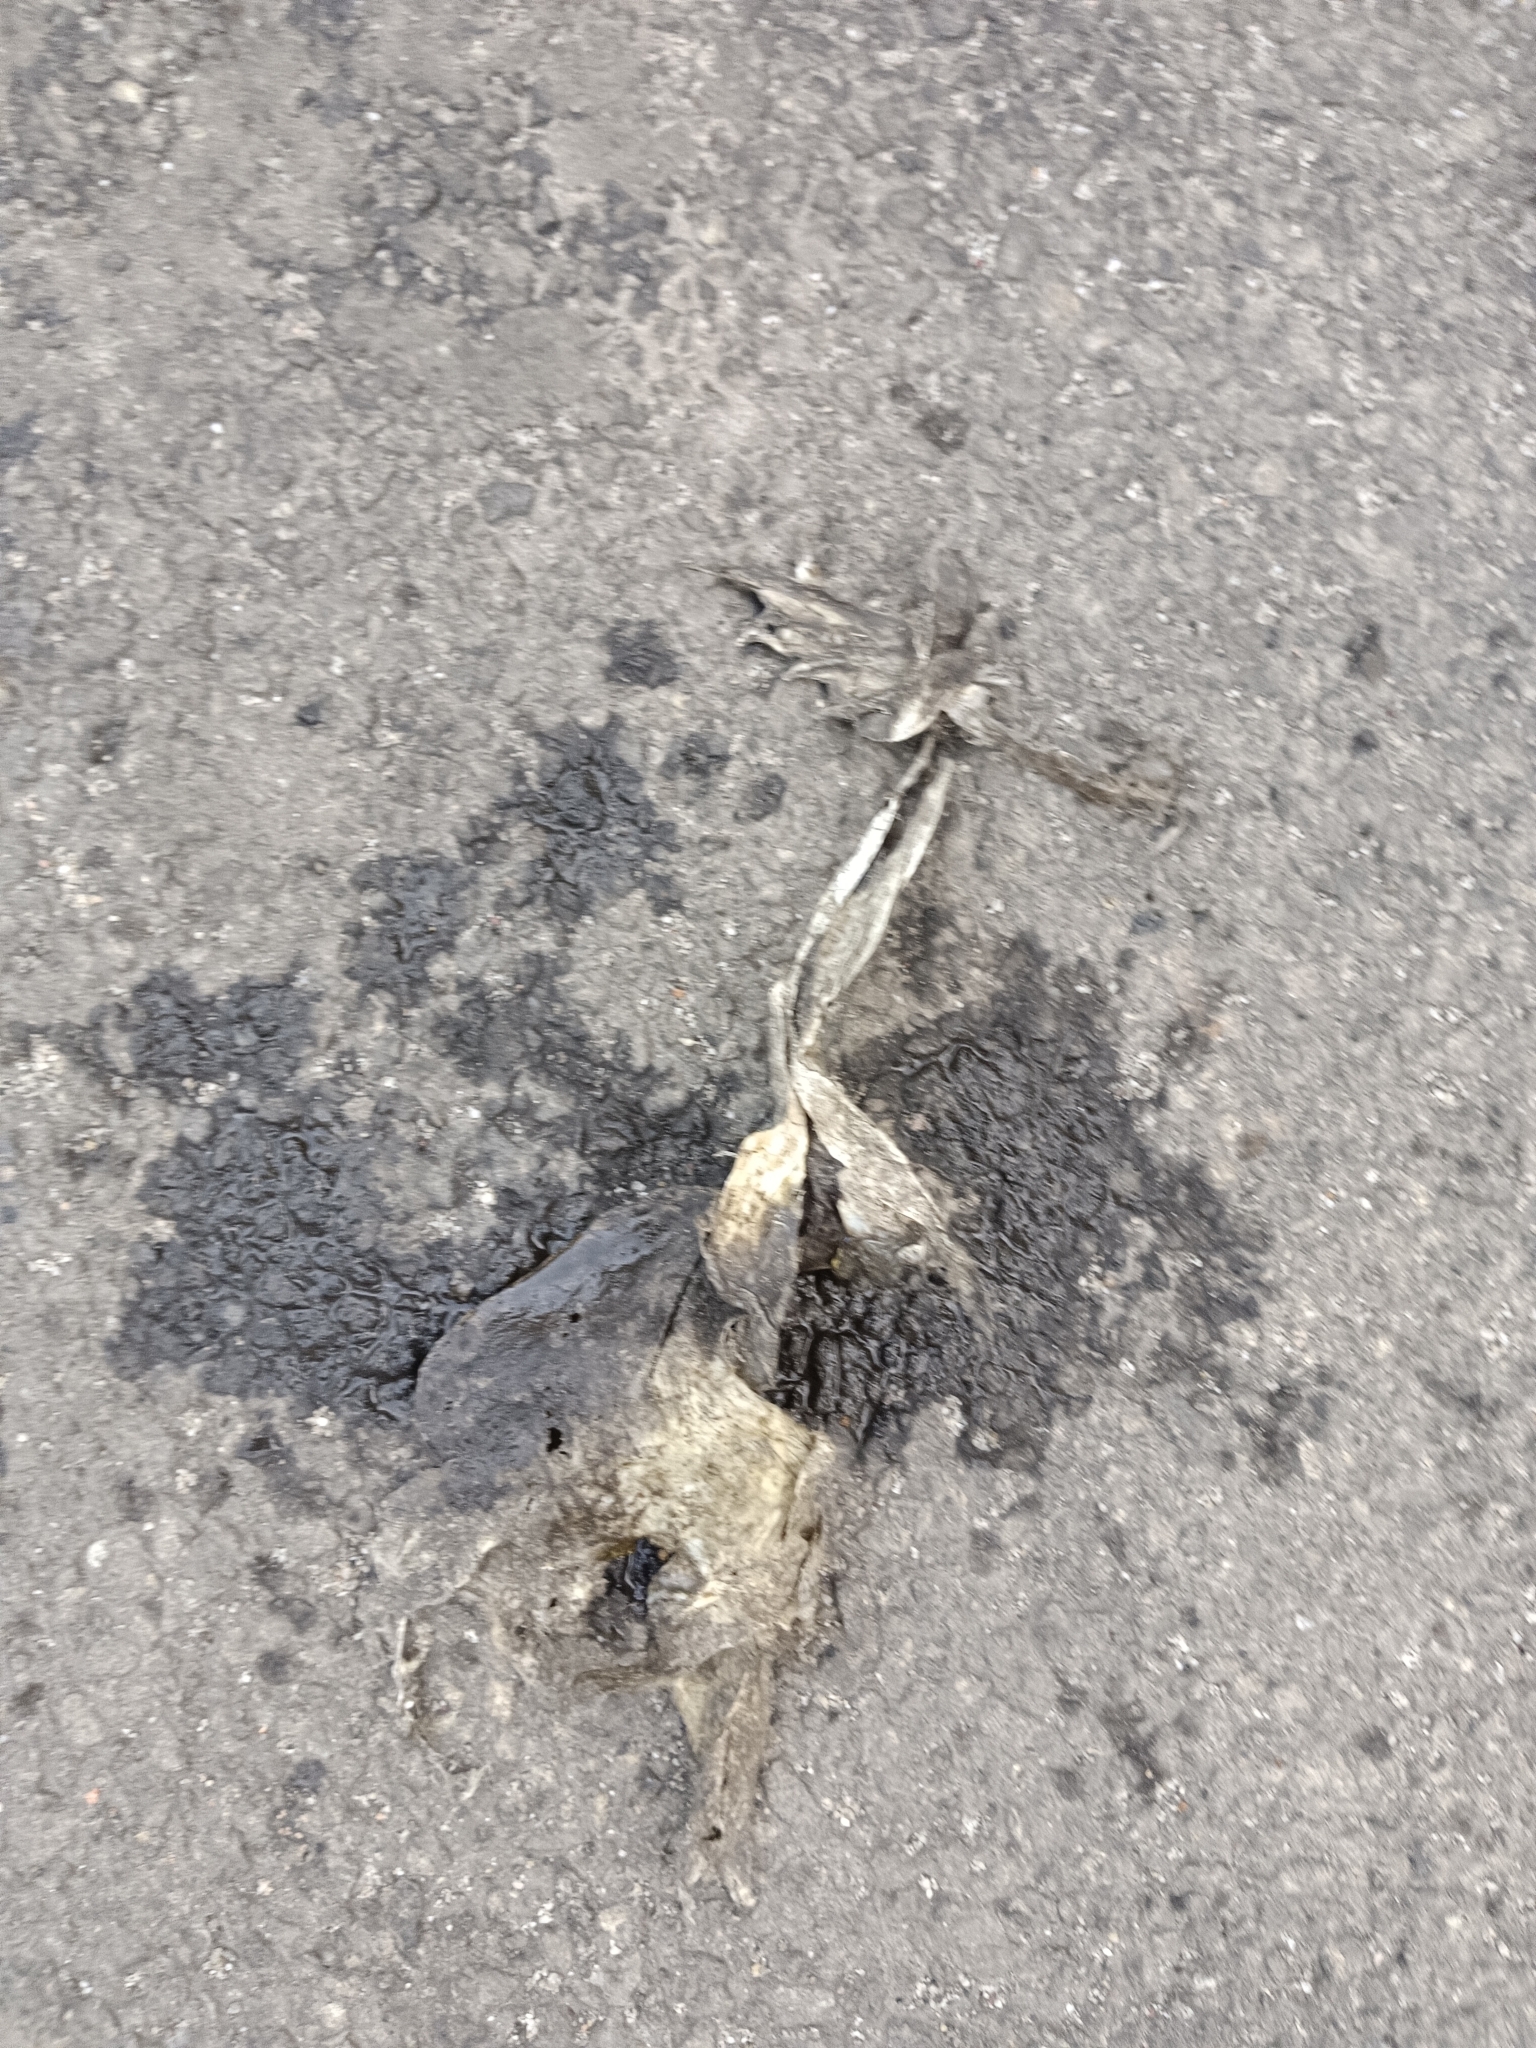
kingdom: Animalia
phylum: Chordata
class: Amphibia
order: Anura
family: Bufonidae
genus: Duttaphrynus
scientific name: Duttaphrynus melanostictus
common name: Common sunda toad
